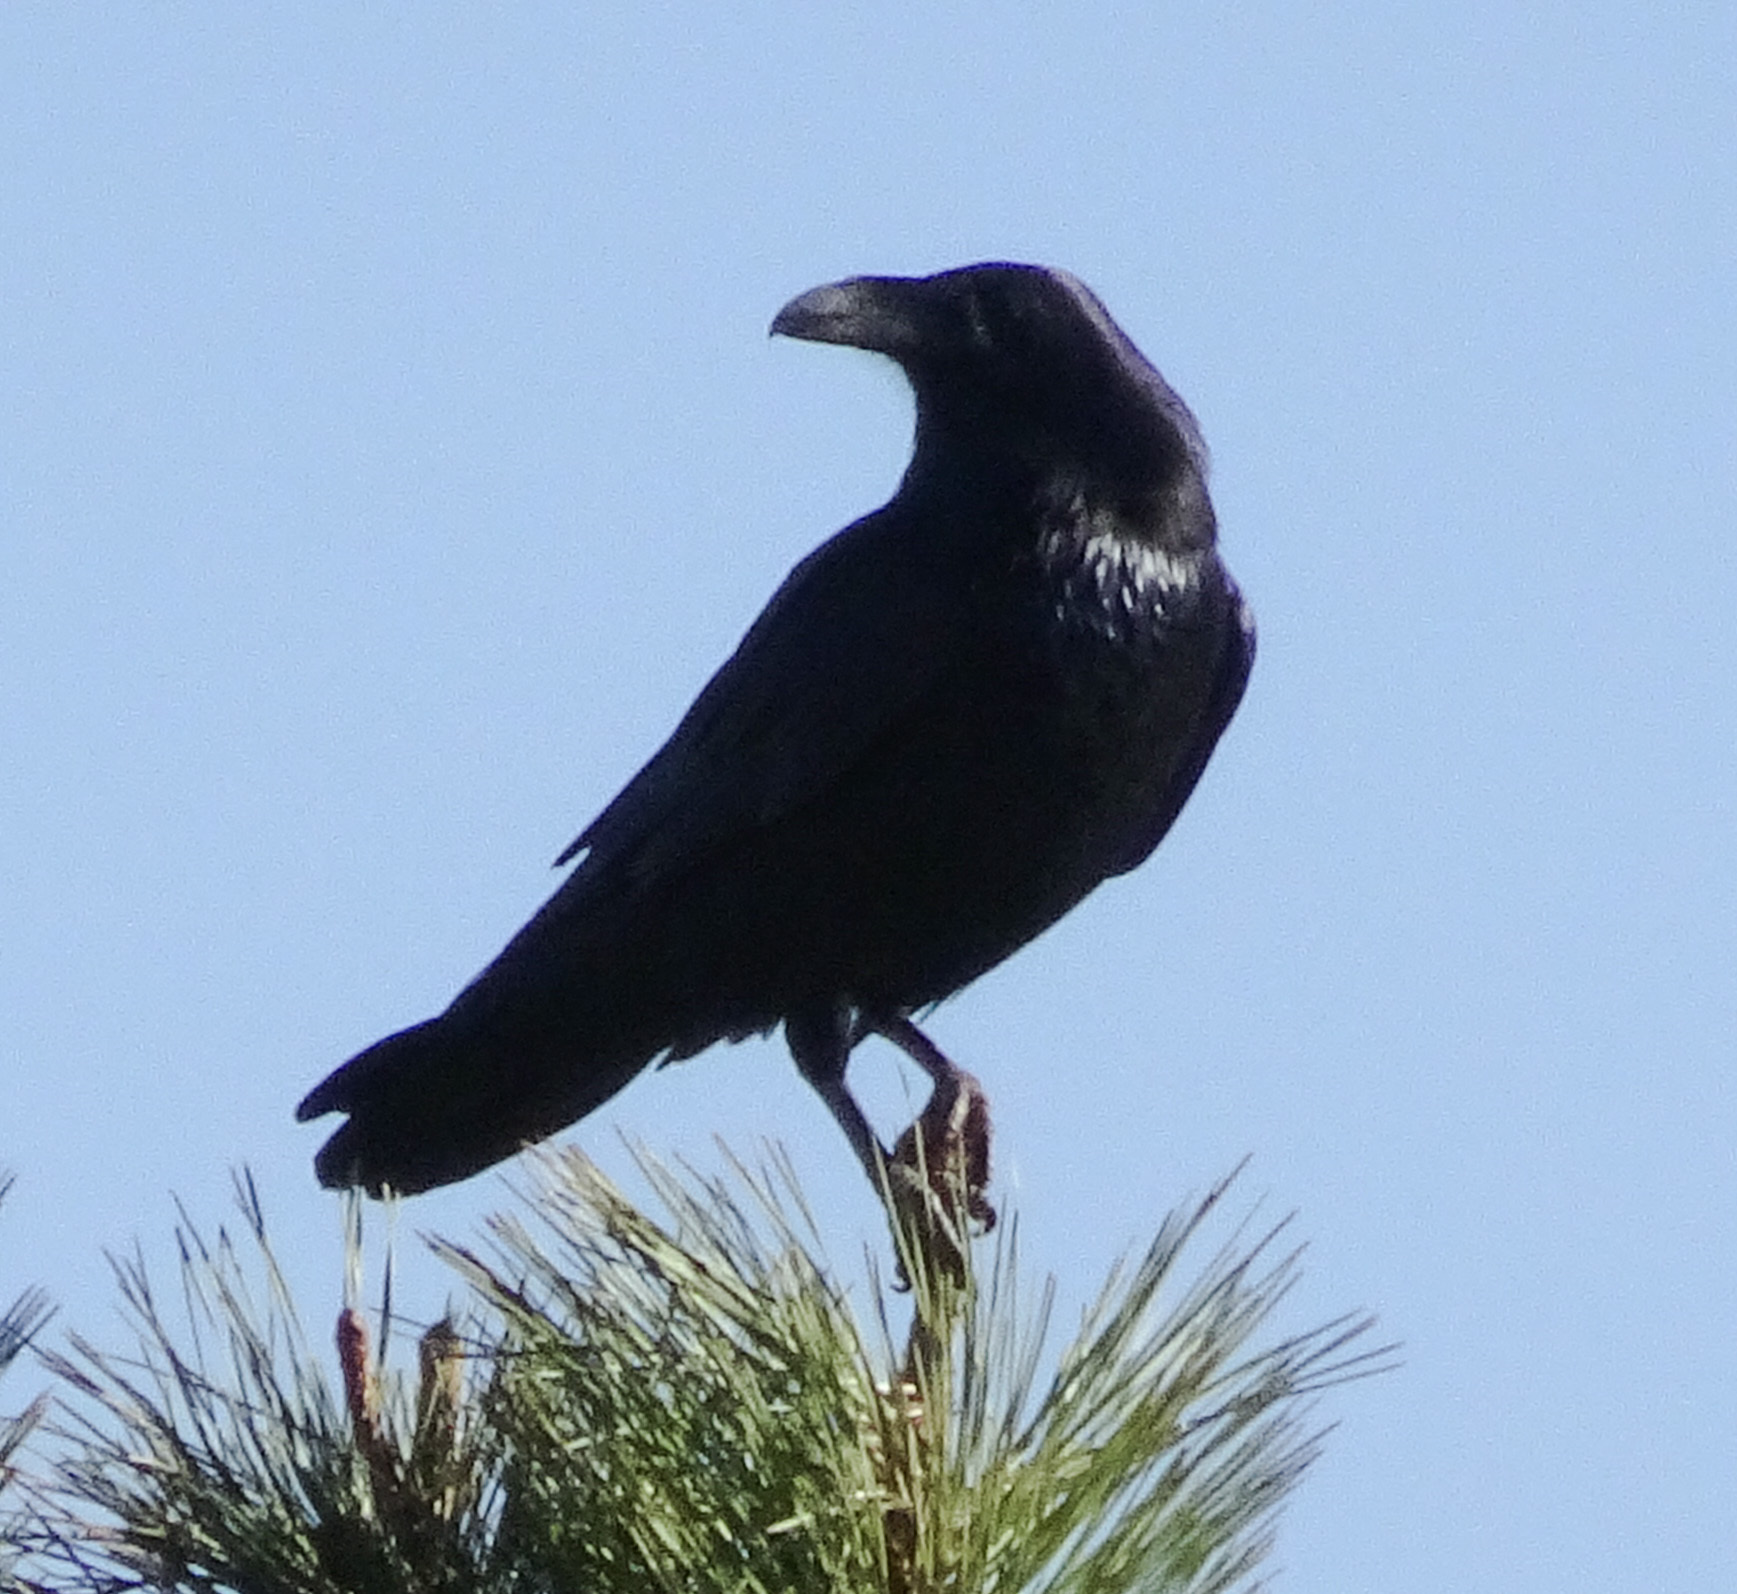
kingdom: Animalia
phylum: Chordata
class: Aves
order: Passeriformes
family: Corvidae
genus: Corvus
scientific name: Corvus corax
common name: Common raven
